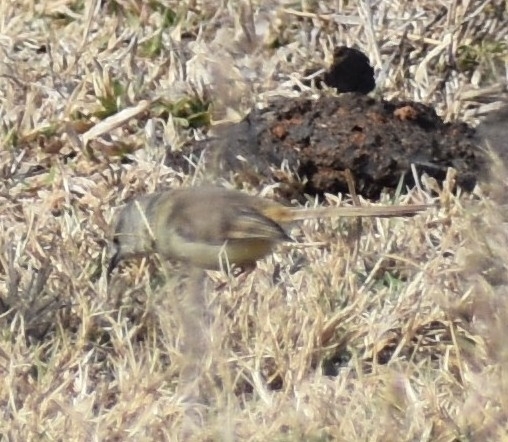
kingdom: Animalia
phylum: Chordata
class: Aves
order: Passeriformes
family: Cisticolidae
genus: Prinia
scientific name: Prinia subflava
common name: Tawny-flanked prinia
